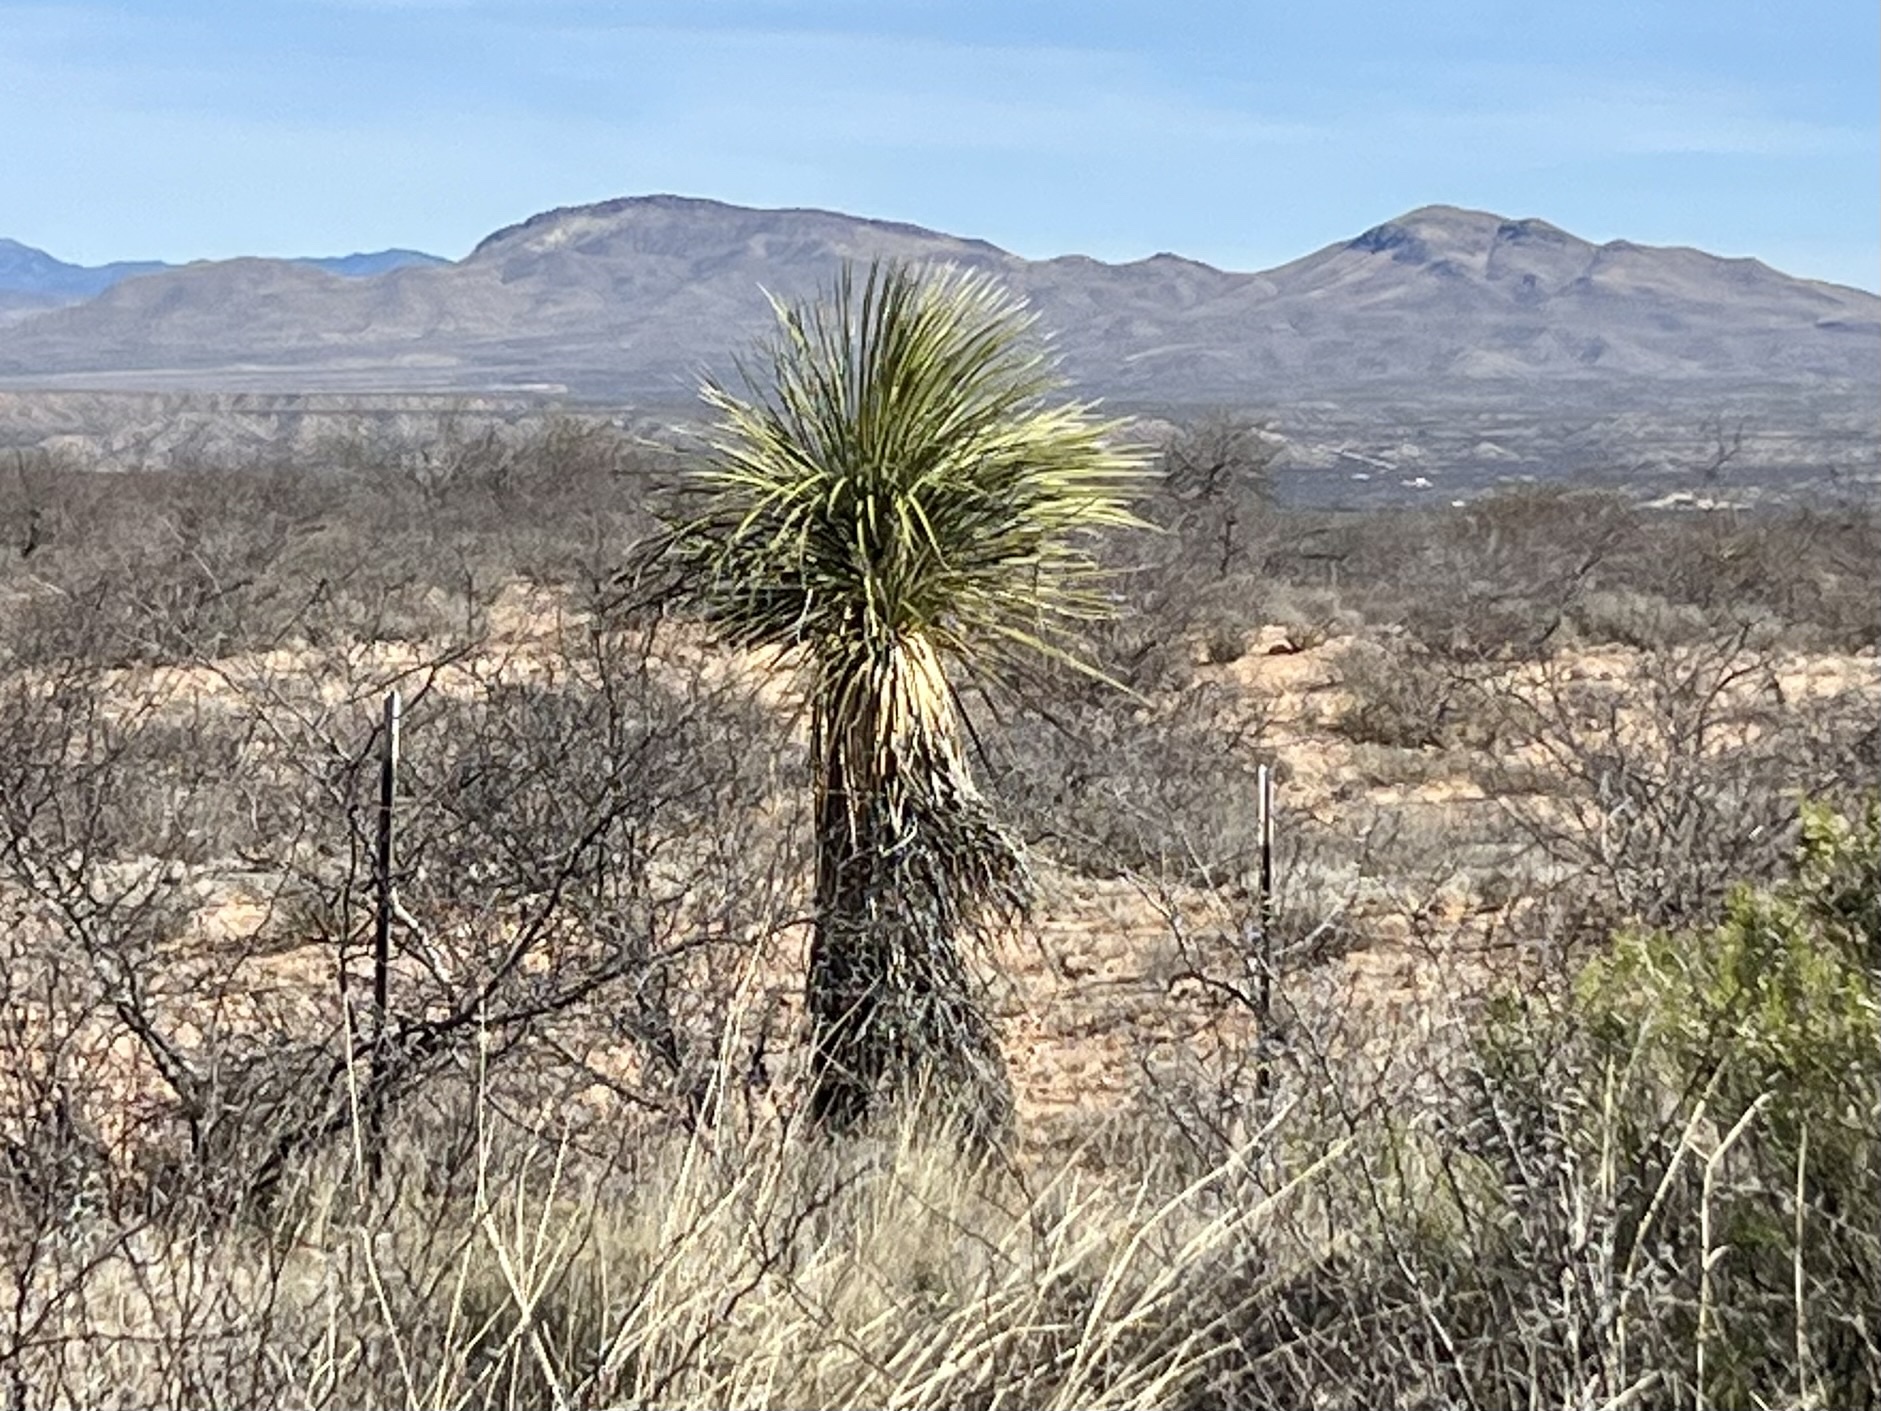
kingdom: Plantae
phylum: Tracheophyta
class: Liliopsida
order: Asparagales
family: Asparagaceae
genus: Yucca
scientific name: Yucca elata
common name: Palmella
